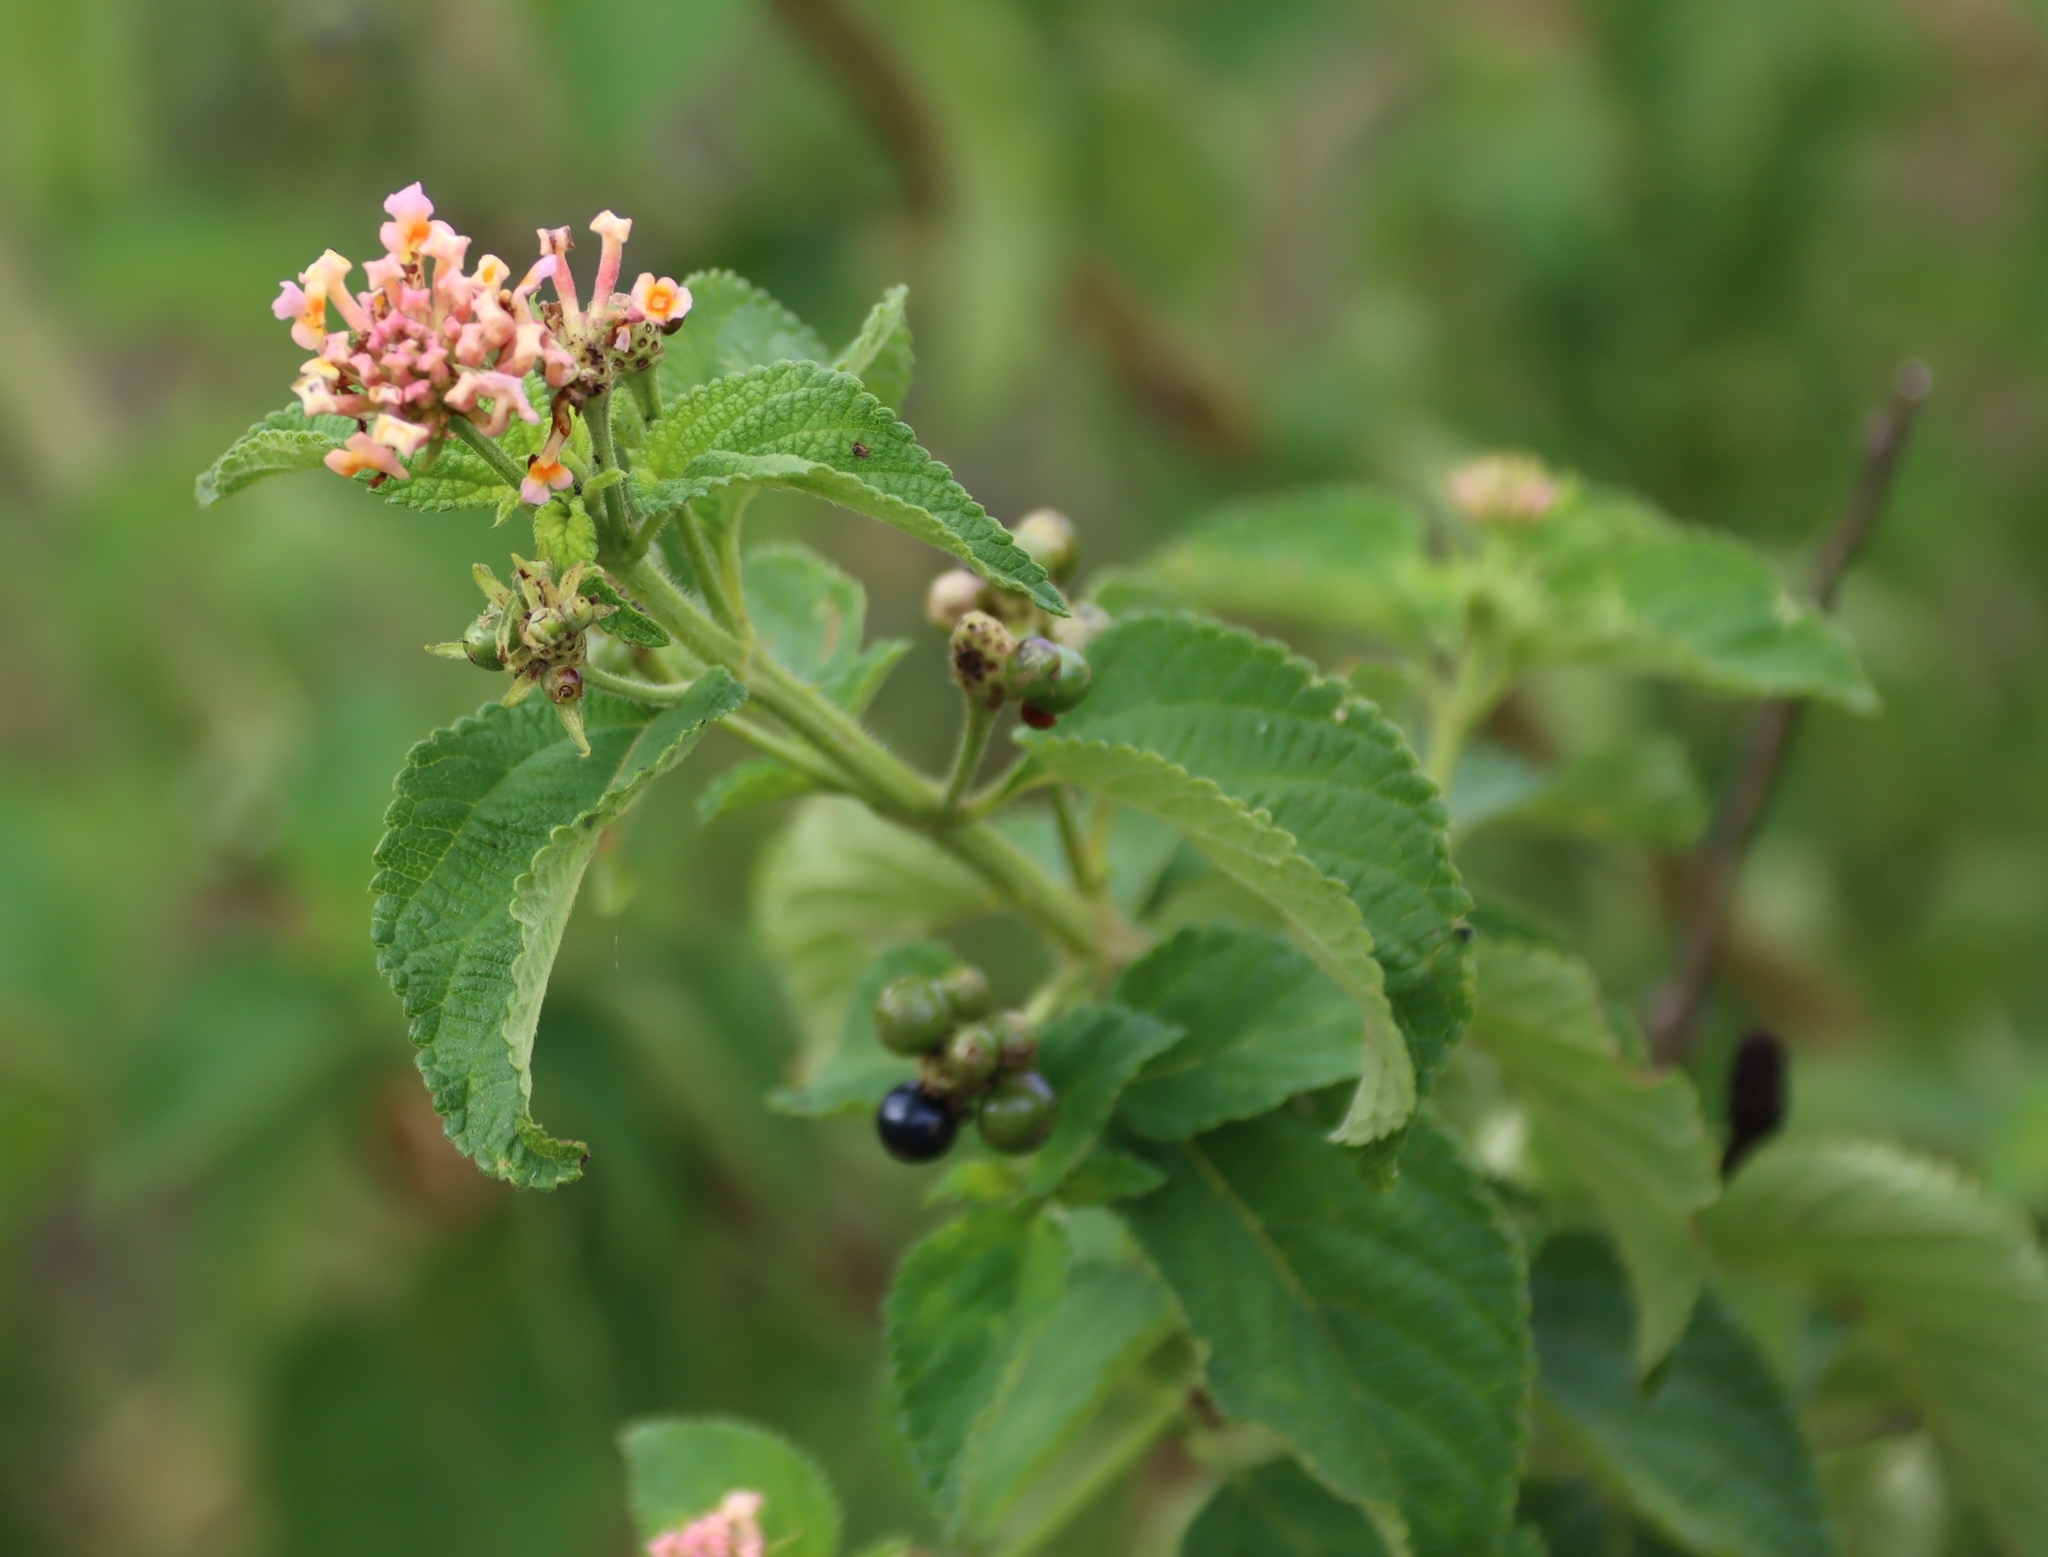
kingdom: Plantae
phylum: Tracheophyta
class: Magnoliopsida
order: Lamiales
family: Verbenaceae
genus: Lantana
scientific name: Lantana camara
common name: Lantana
